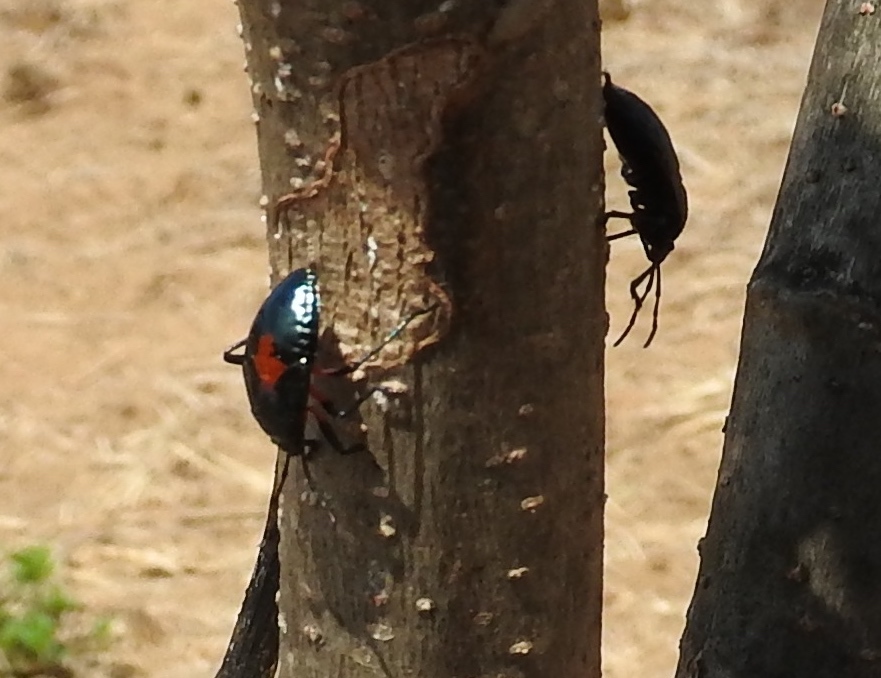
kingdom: Animalia
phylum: Arthropoda
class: Insecta
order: Hemiptera
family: Largidae
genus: Largus
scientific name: Largus
